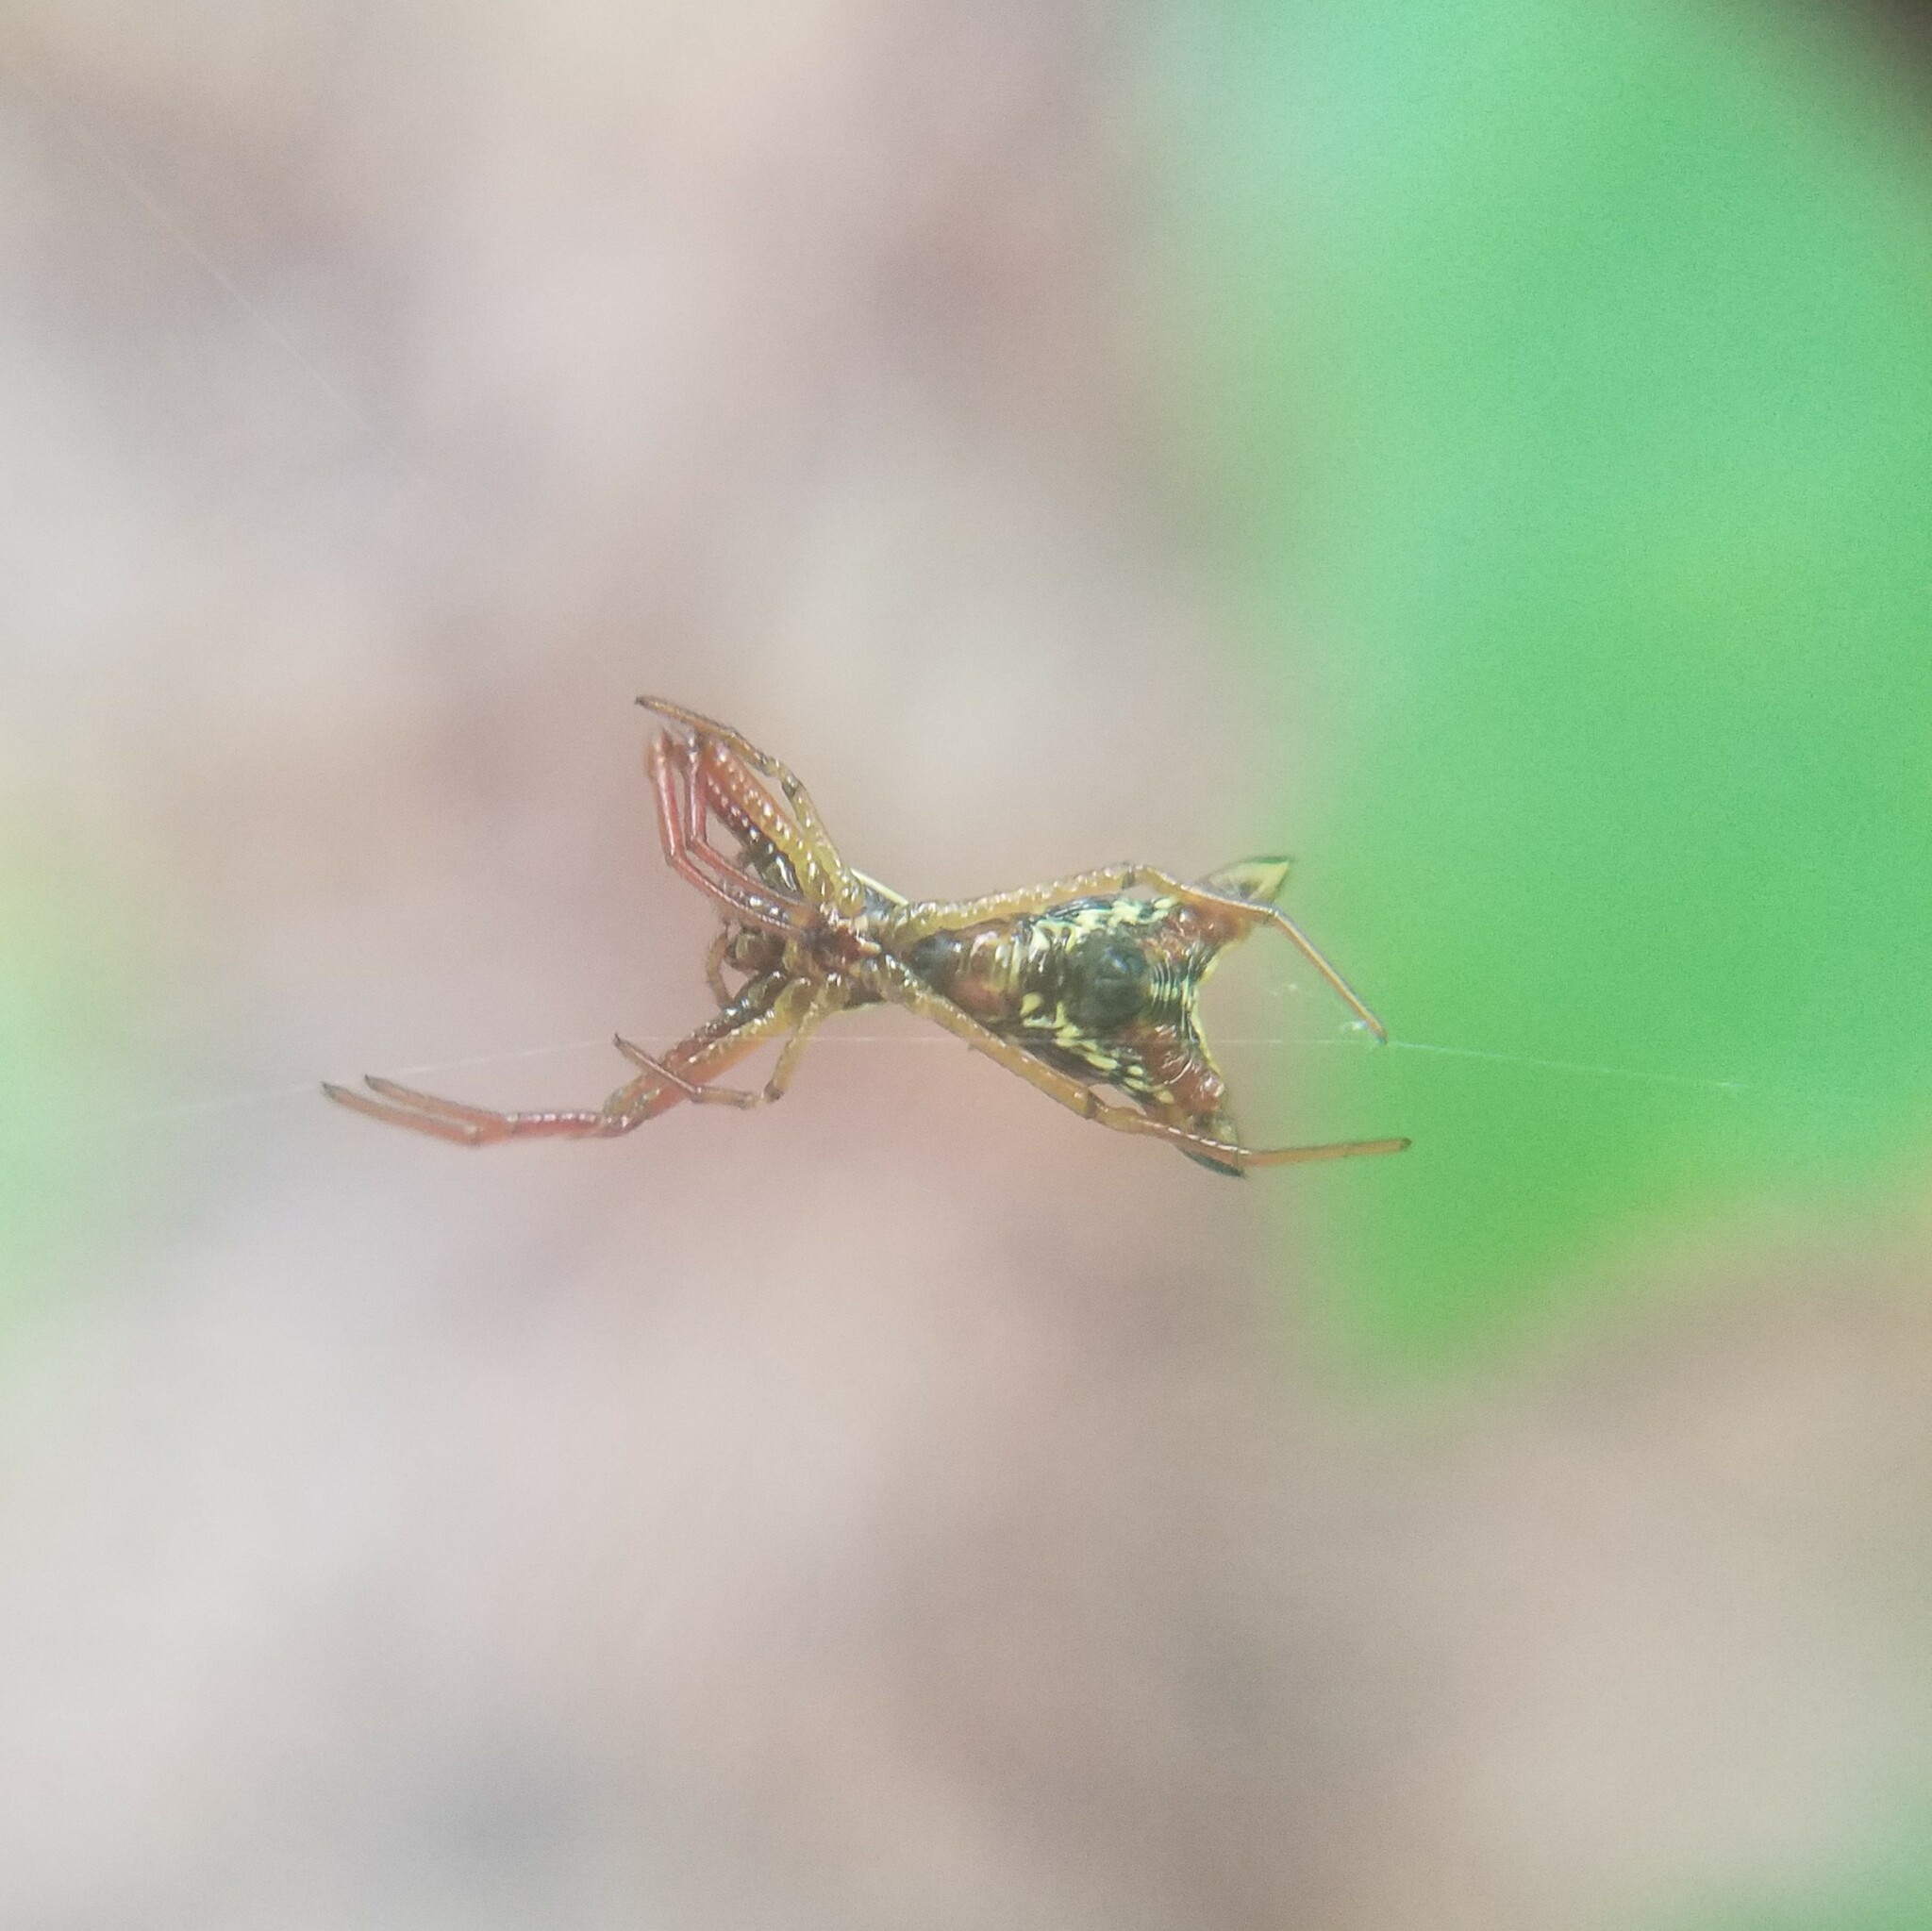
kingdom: Animalia
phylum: Arthropoda
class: Arachnida
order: Araneae
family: Araneidae
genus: Micrathena
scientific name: Micrathena sagittata
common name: Orb weavers
